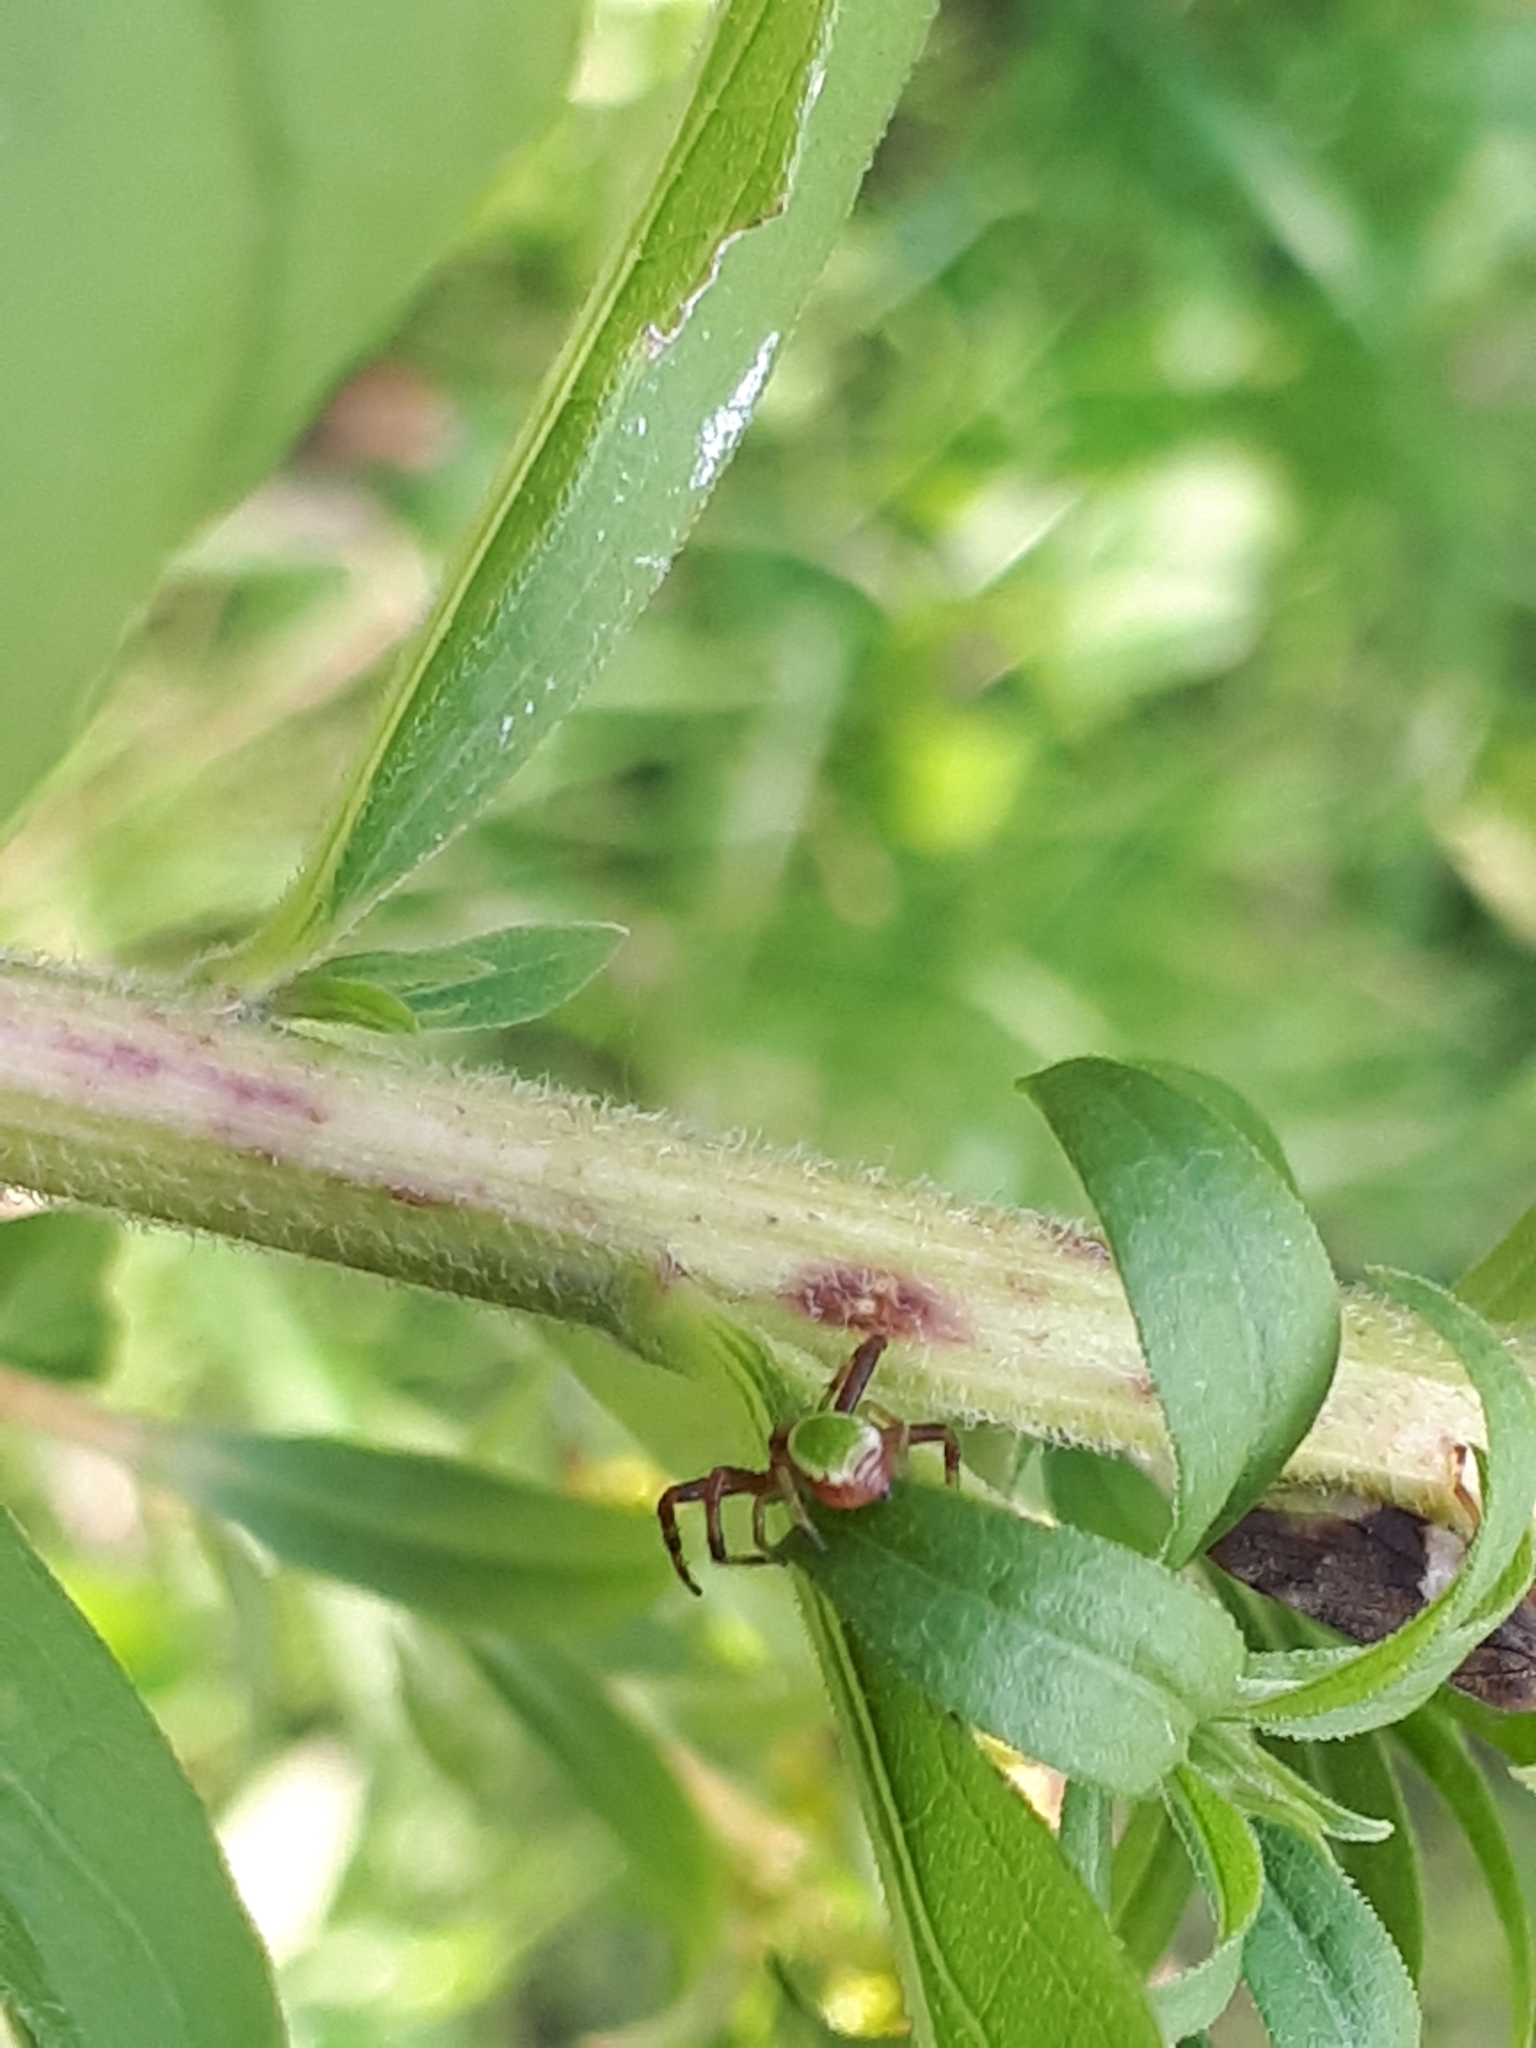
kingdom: Animalia
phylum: Arthropoda
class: Arachnida
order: Araneae
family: Thomisidae
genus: Ebrechtella
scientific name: Ebrechtella tricuspidata
